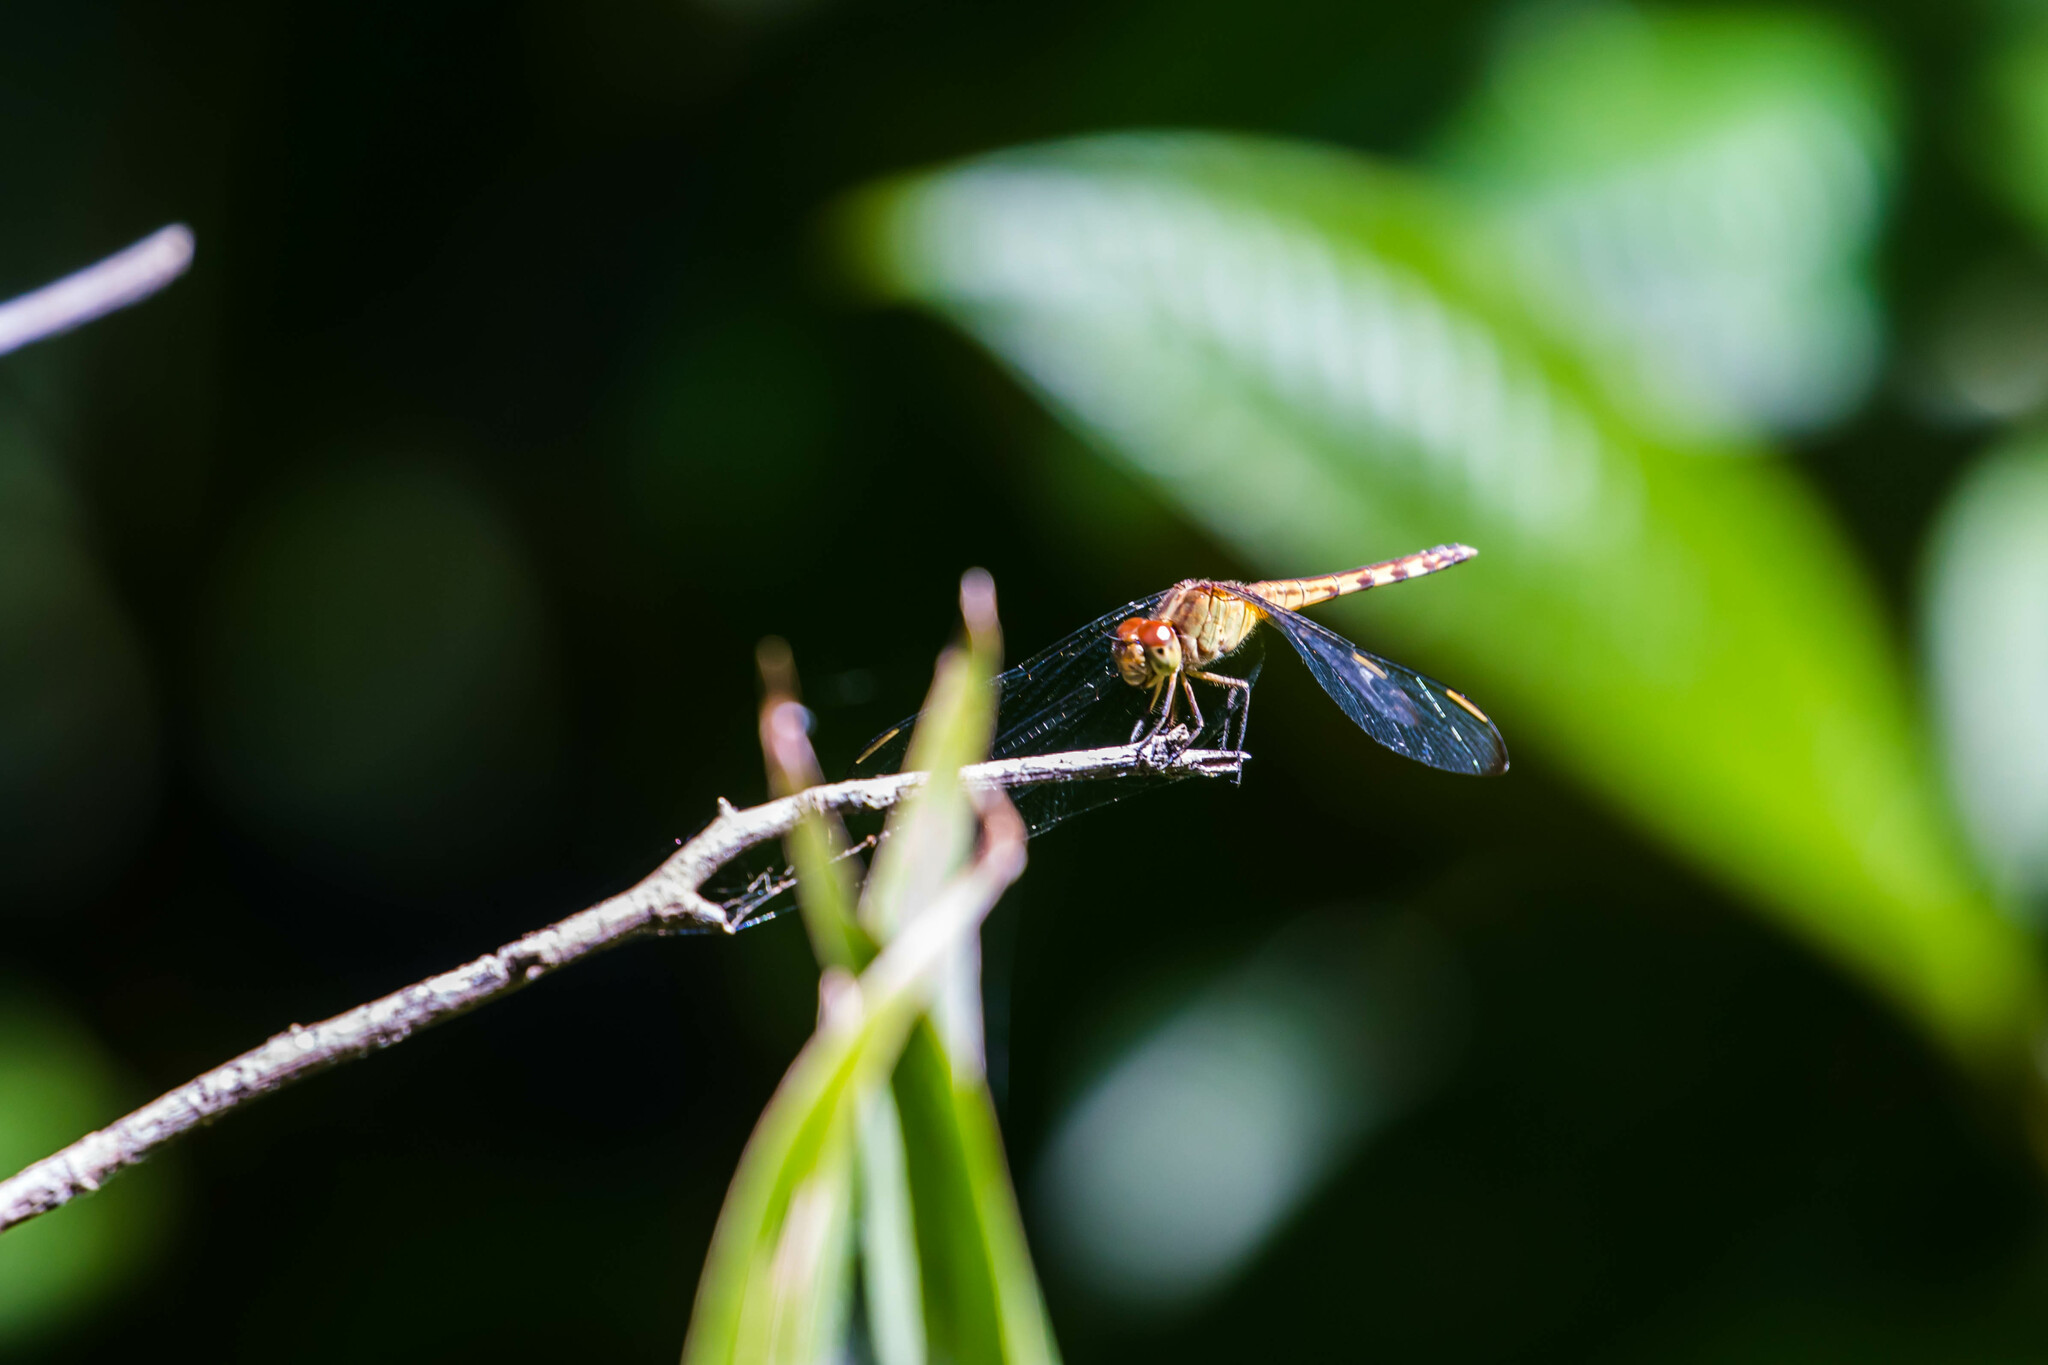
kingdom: Animalia
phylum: Arthropoda
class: Insecta
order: Odonata
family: Libellulidae
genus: Erythrodiplax
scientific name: Erythrodiplax umbrata
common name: Band-winged dragonlet
